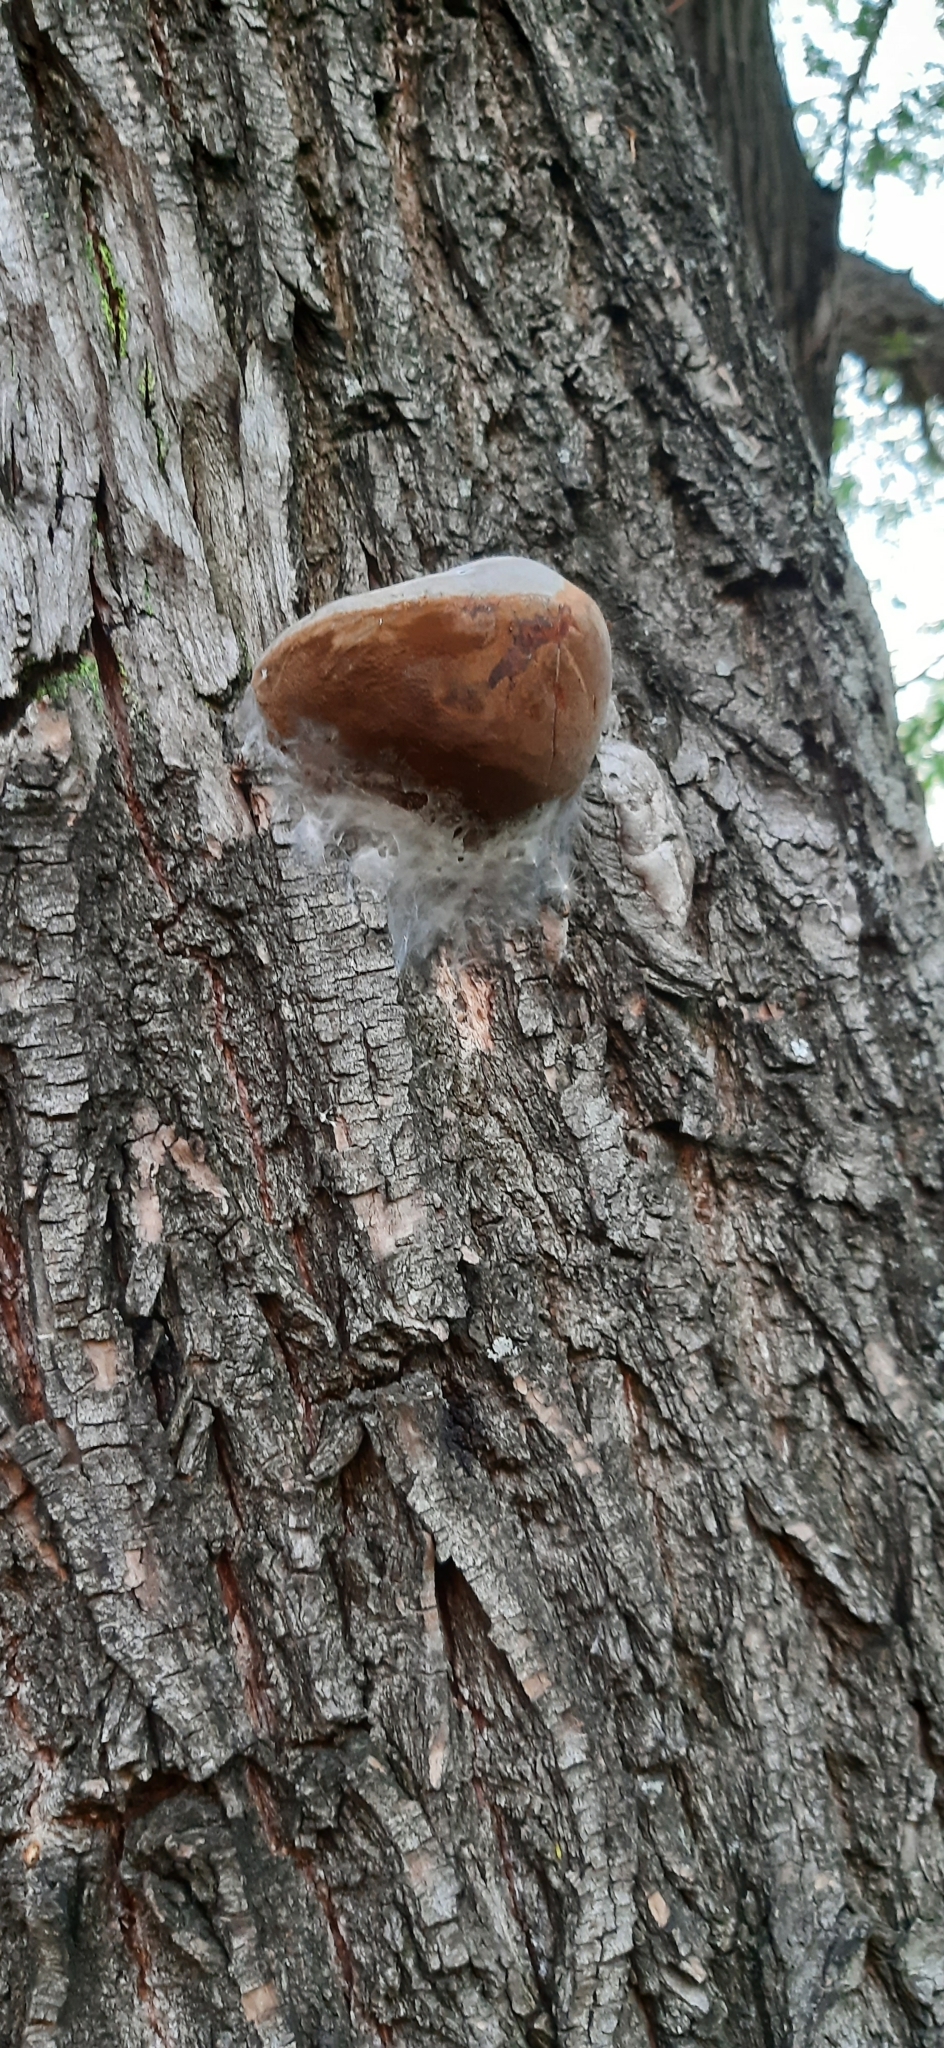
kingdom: Fungi
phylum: Basidiomycota
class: Agaricomycetes
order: Hymenochaetales
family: Hymenochaetaceae
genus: Phellinus
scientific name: Phellinus igniarius
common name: Willow bracket
